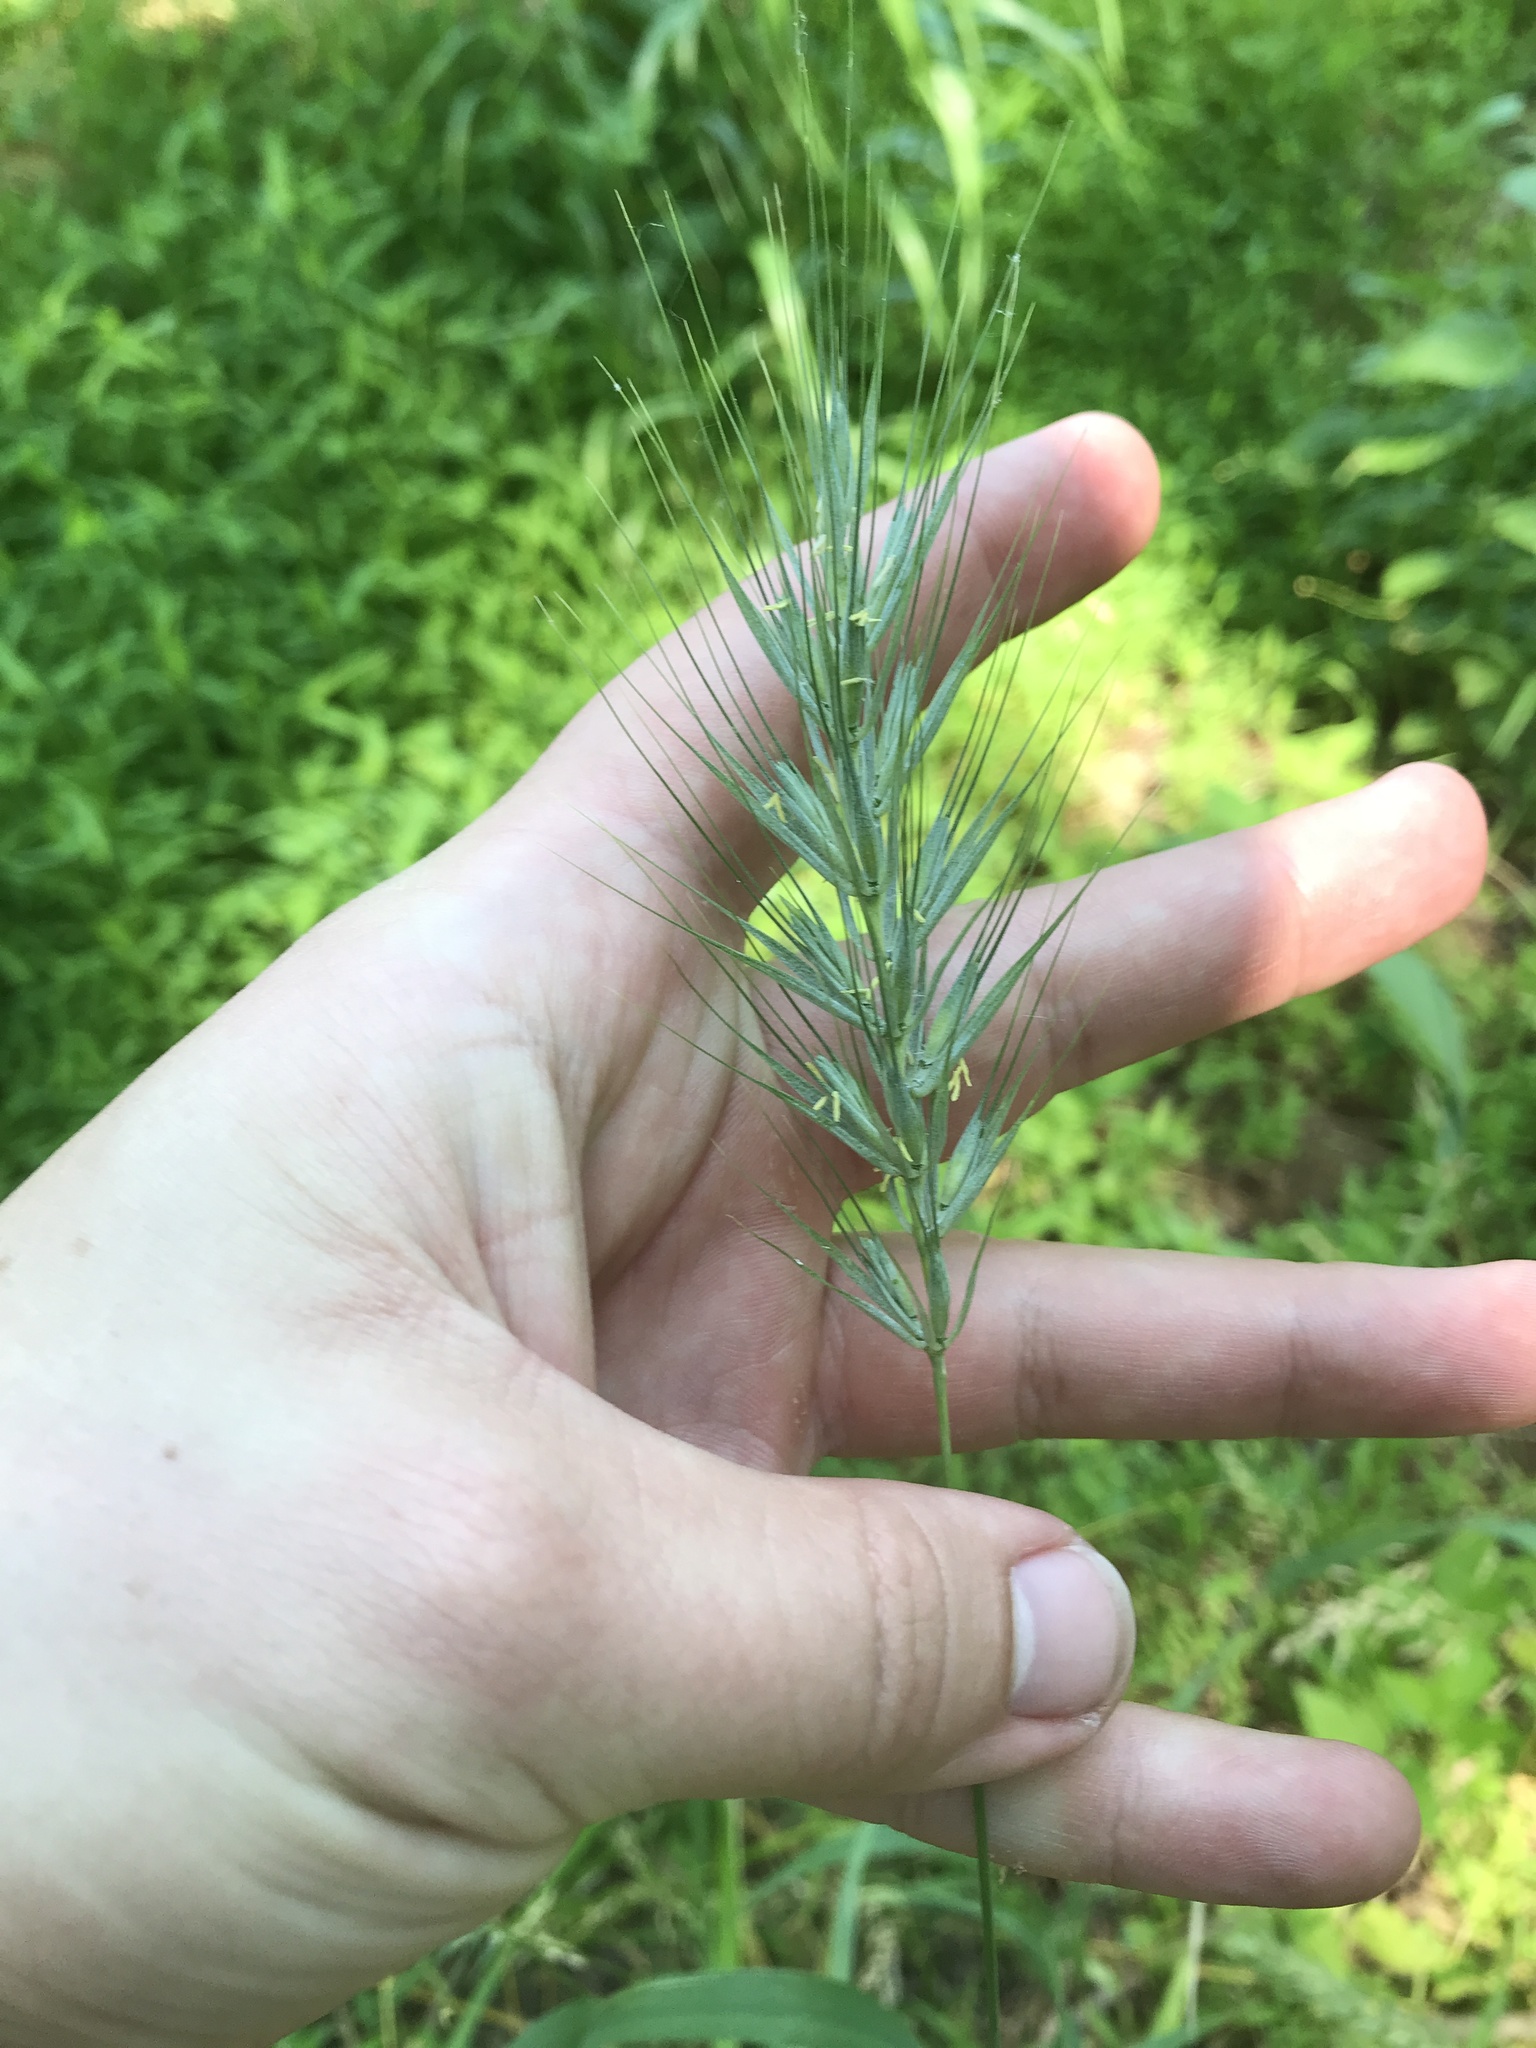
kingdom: Plantae
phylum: Tracheophyta
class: Liliopsida
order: Poales
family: Poaceae
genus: Elymus
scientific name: Elymus macgregorii
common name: Early wild rye
